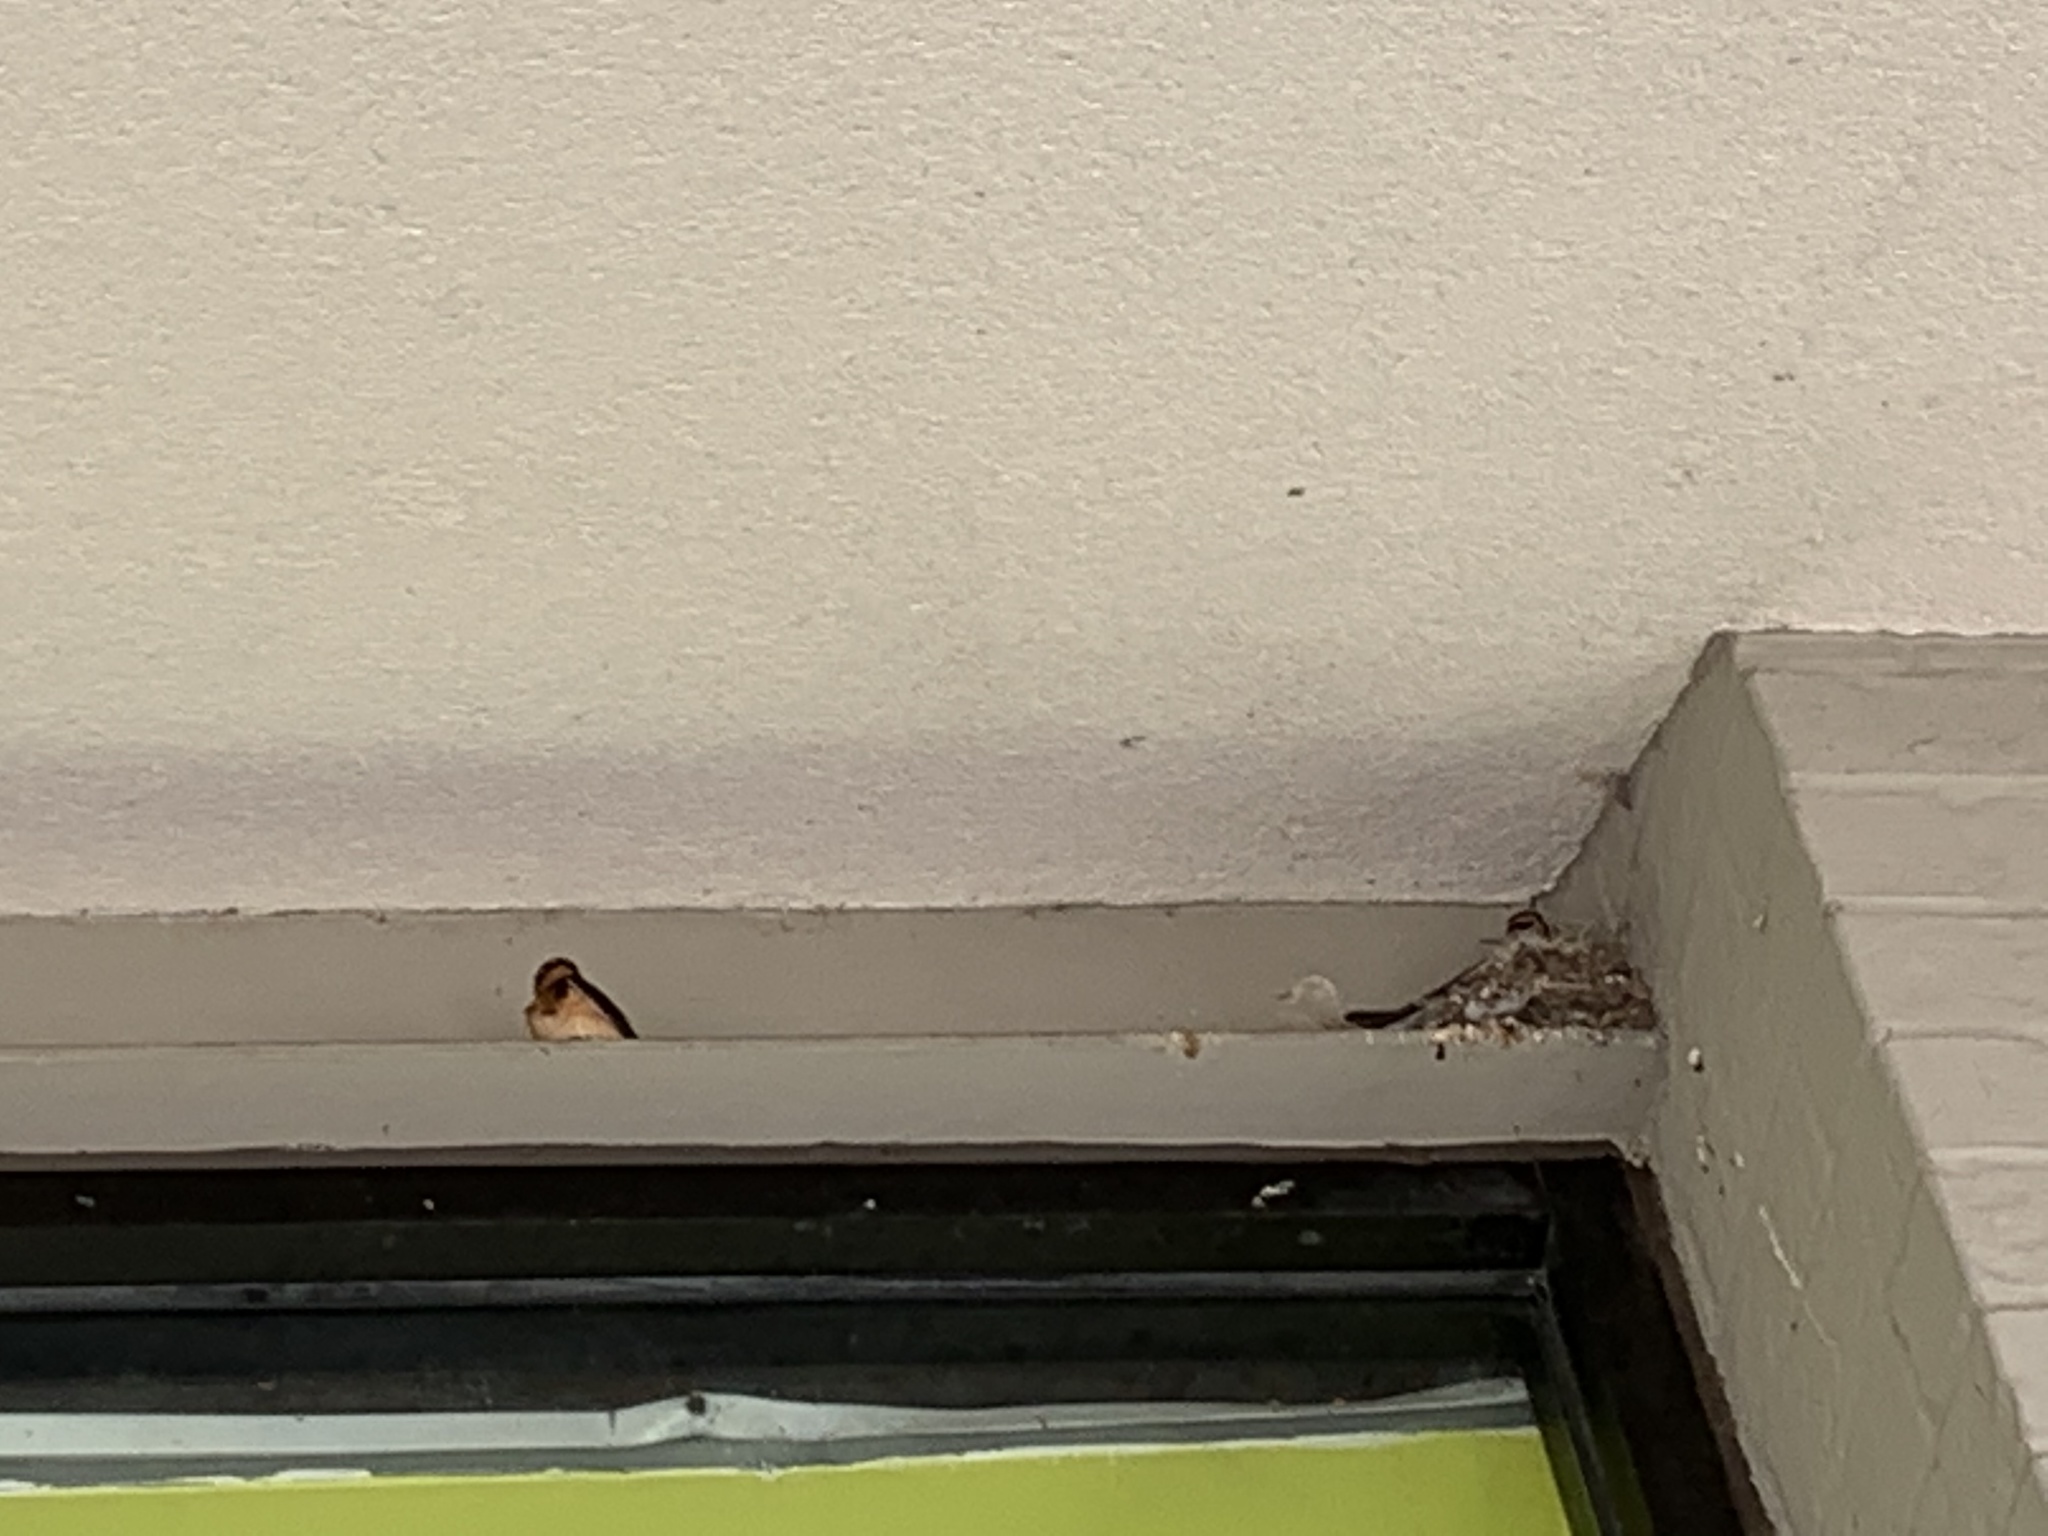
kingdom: Animalia
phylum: Chordata
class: Aves
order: Passeriformes
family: Hirundinidae
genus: Hirundo
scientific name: Hirundo rustica
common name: Barn swallow
